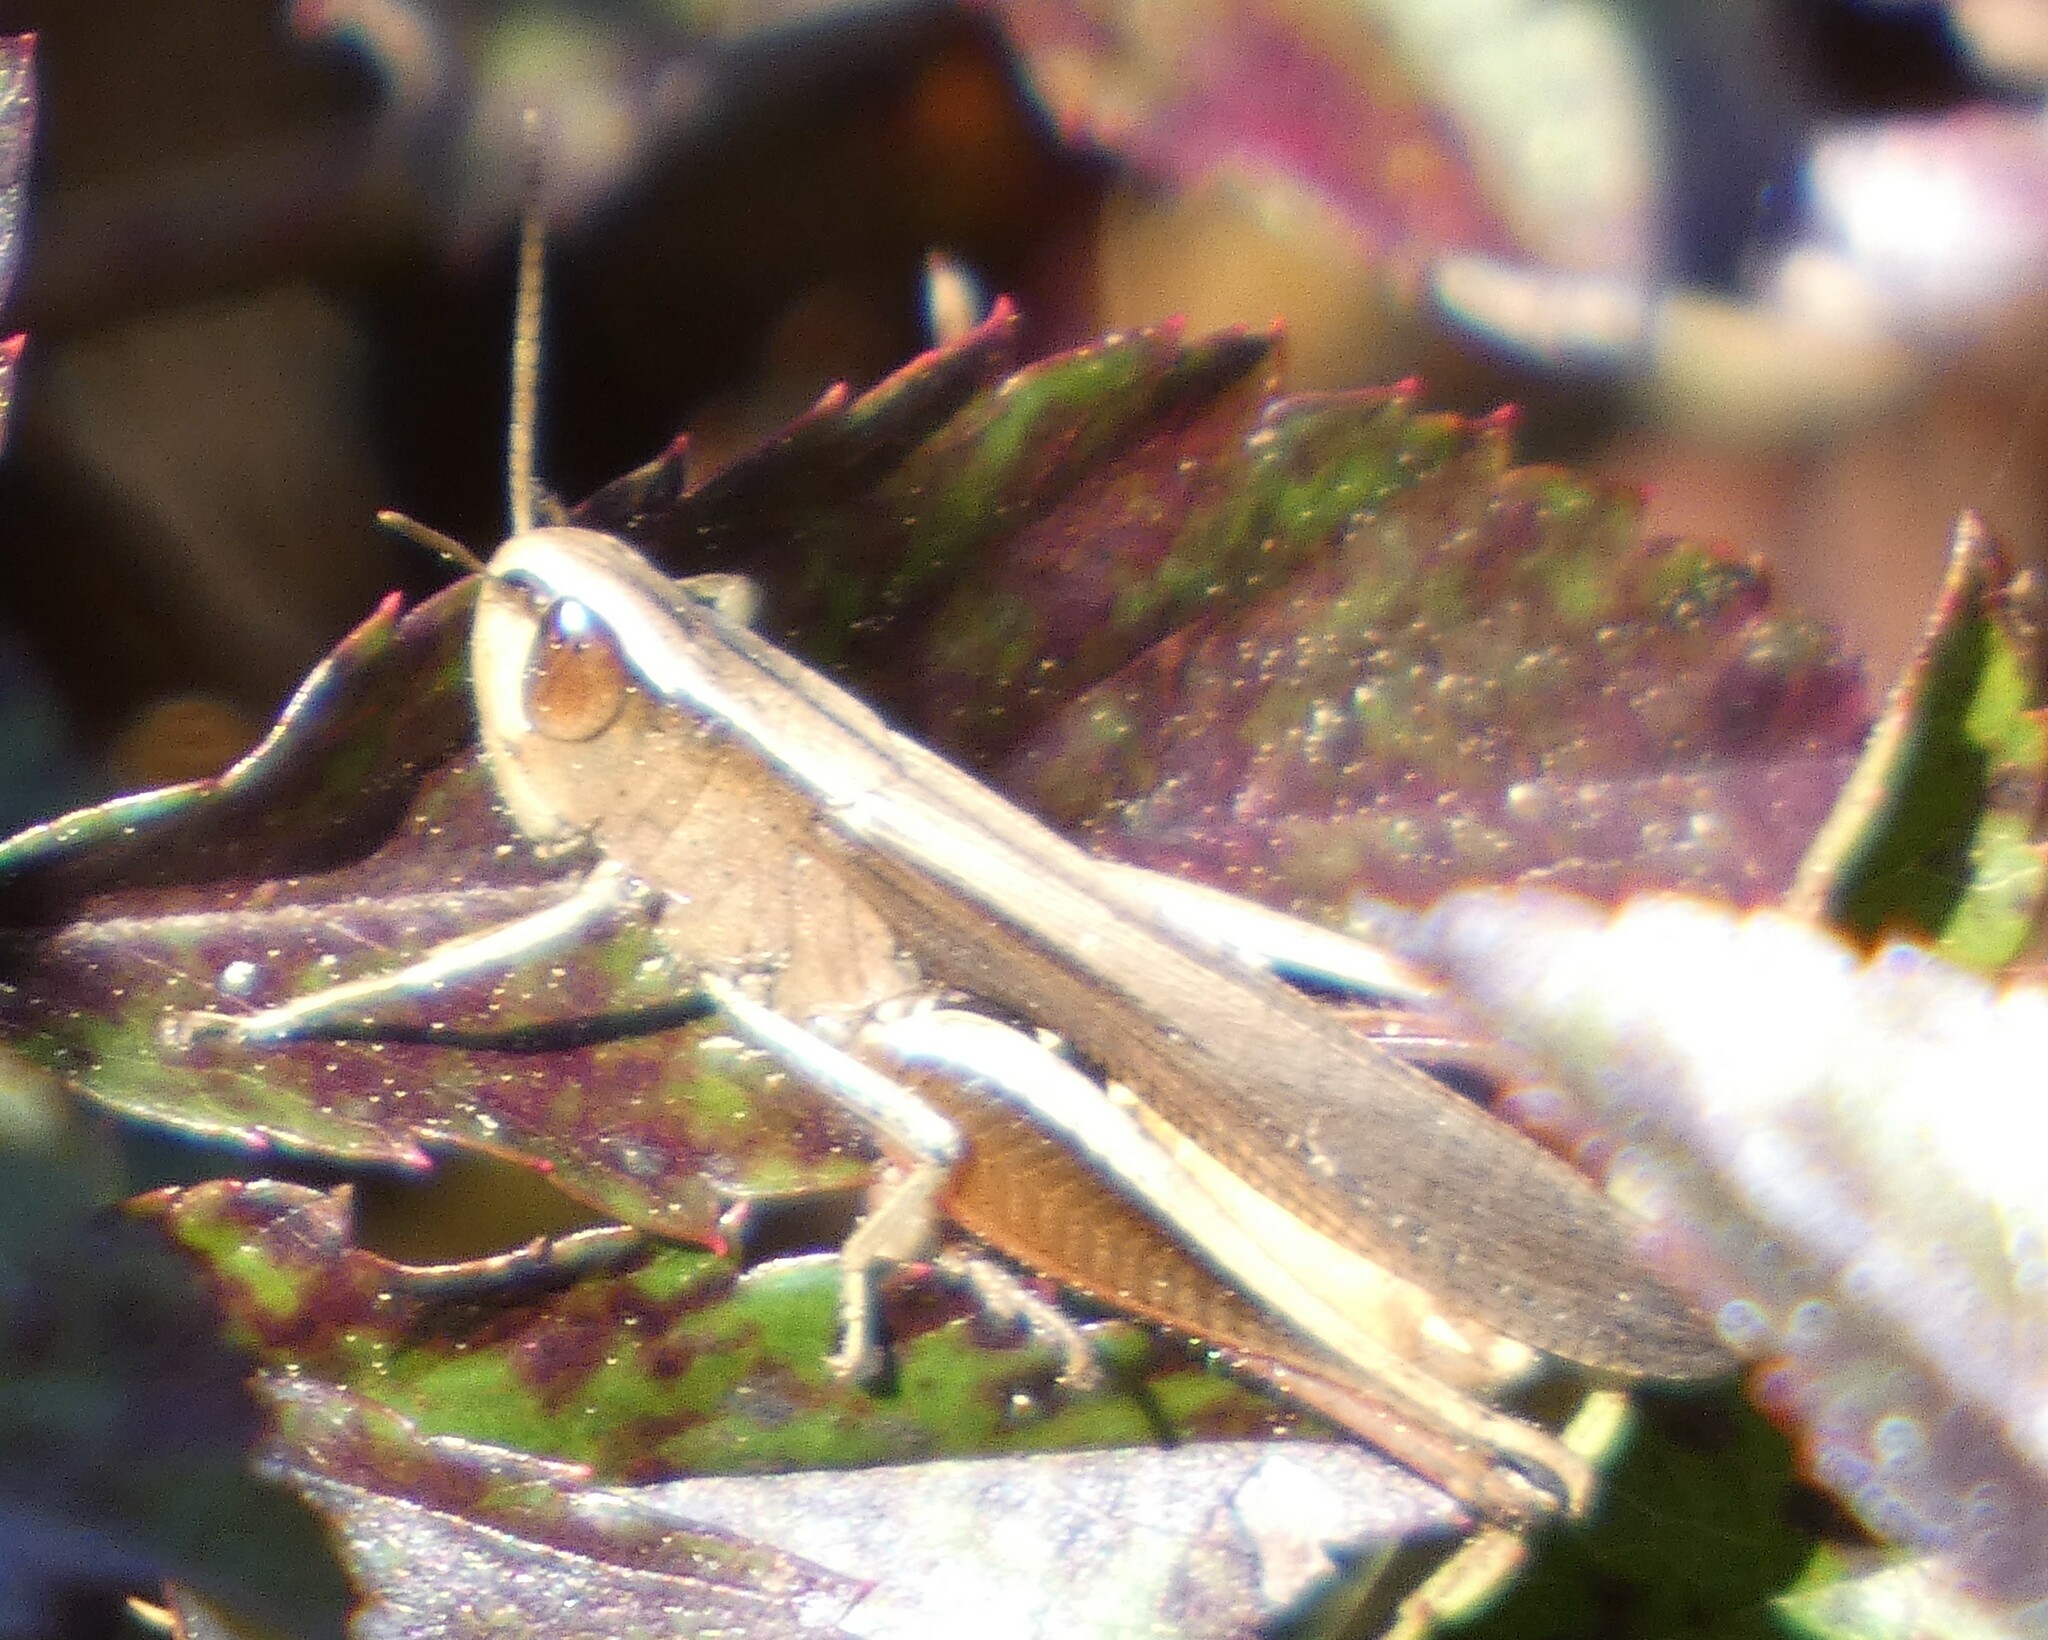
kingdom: Animalia
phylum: Arthropoda
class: Insecta
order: Orthoptera
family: Acrididae
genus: Amblytropidia
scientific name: Amblytropidia mysteca
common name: Brown winter grasshopper
